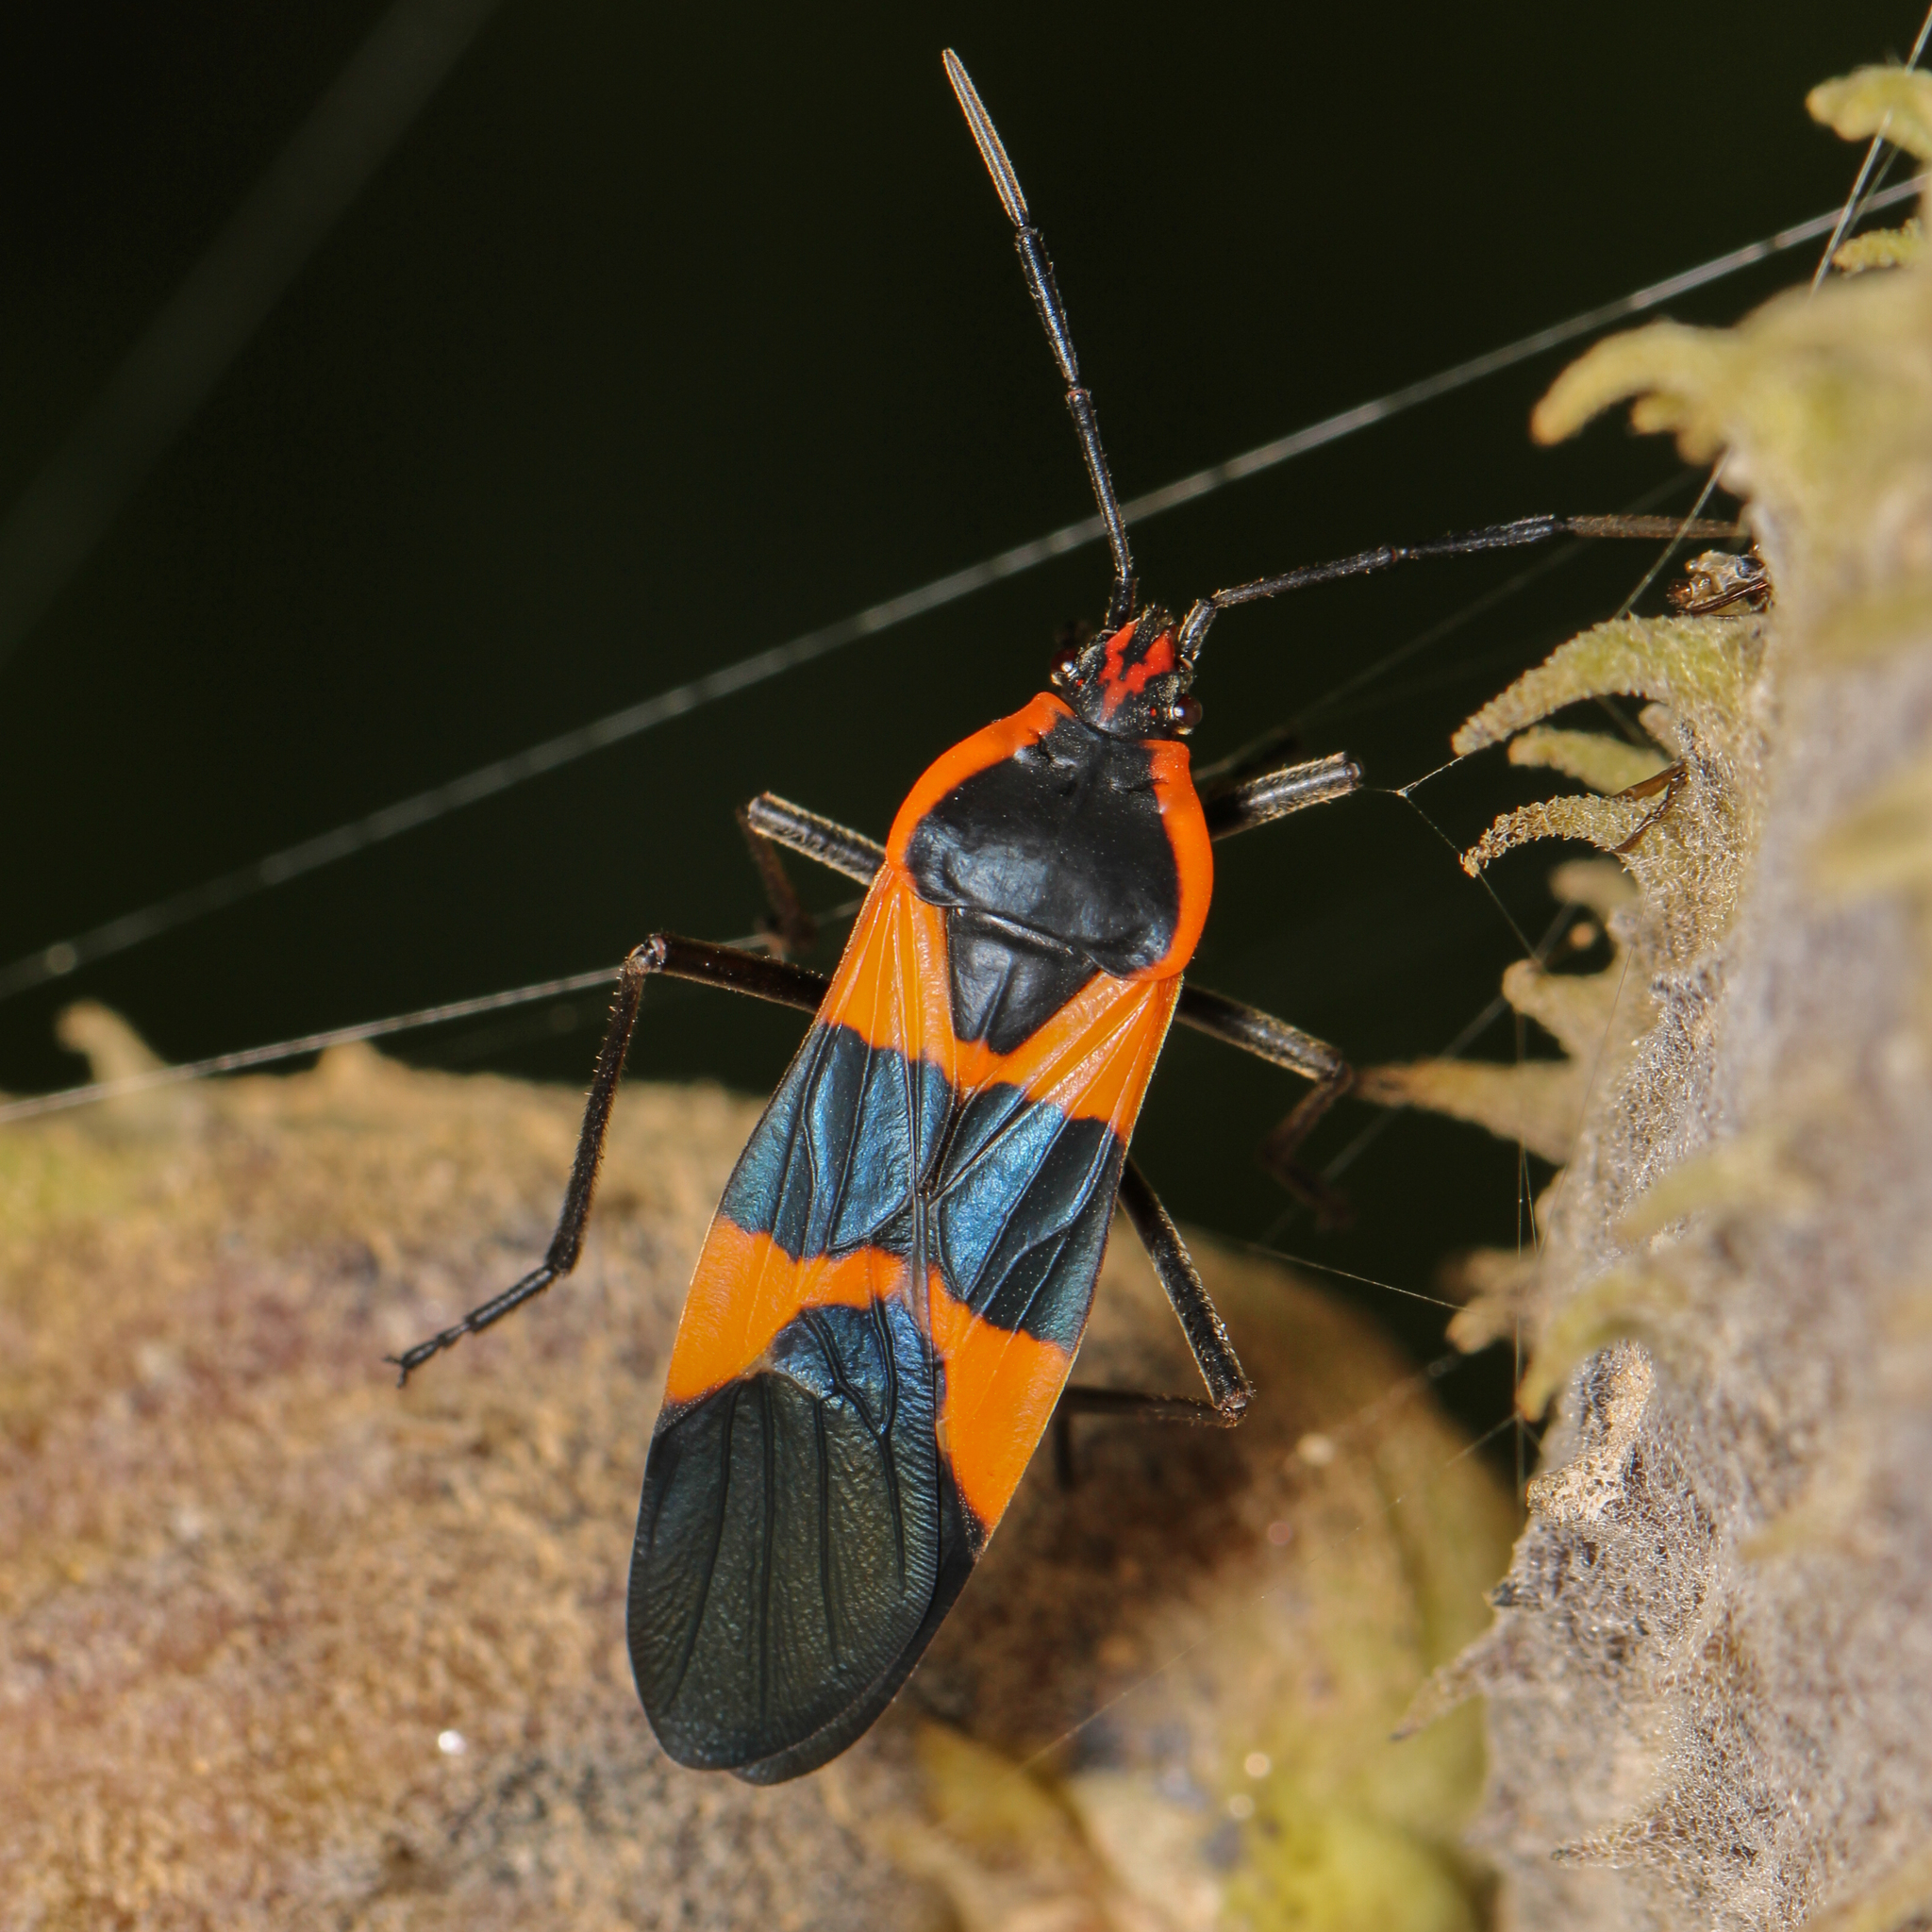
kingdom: Animalia
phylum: Arthropoda
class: Insecta
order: Hemiptera
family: Lygaeidae
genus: Oncopeltus
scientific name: Oncopeltus fasciatus
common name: Large milkweed bug
